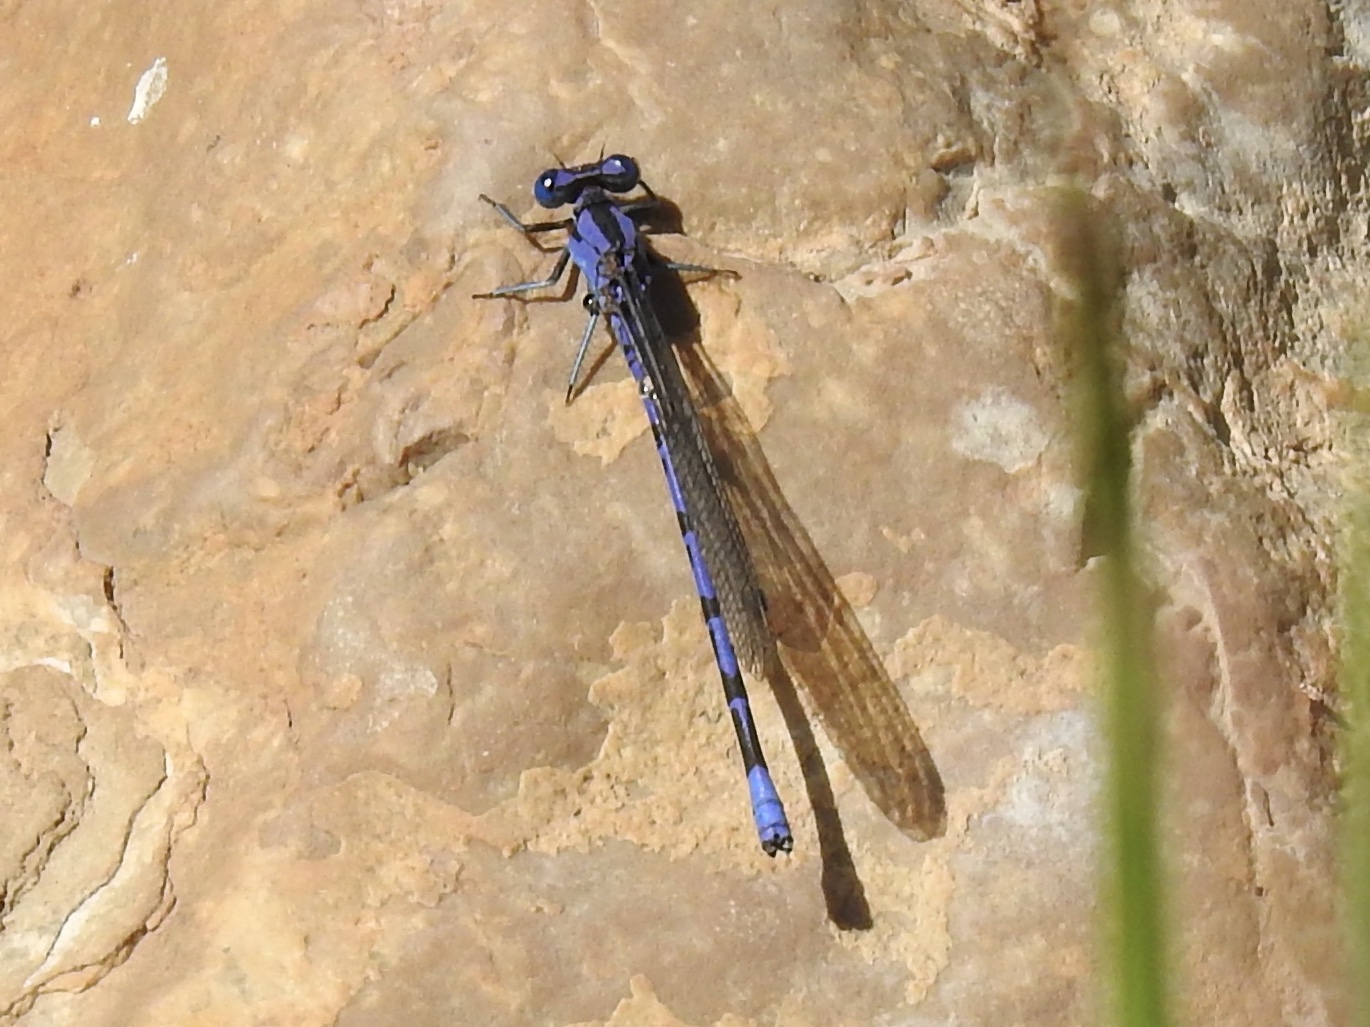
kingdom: Animalia
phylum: Arthropoda
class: Insecta
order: Odonata
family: Coenagrionidae
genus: Argia
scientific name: Argia funebris
